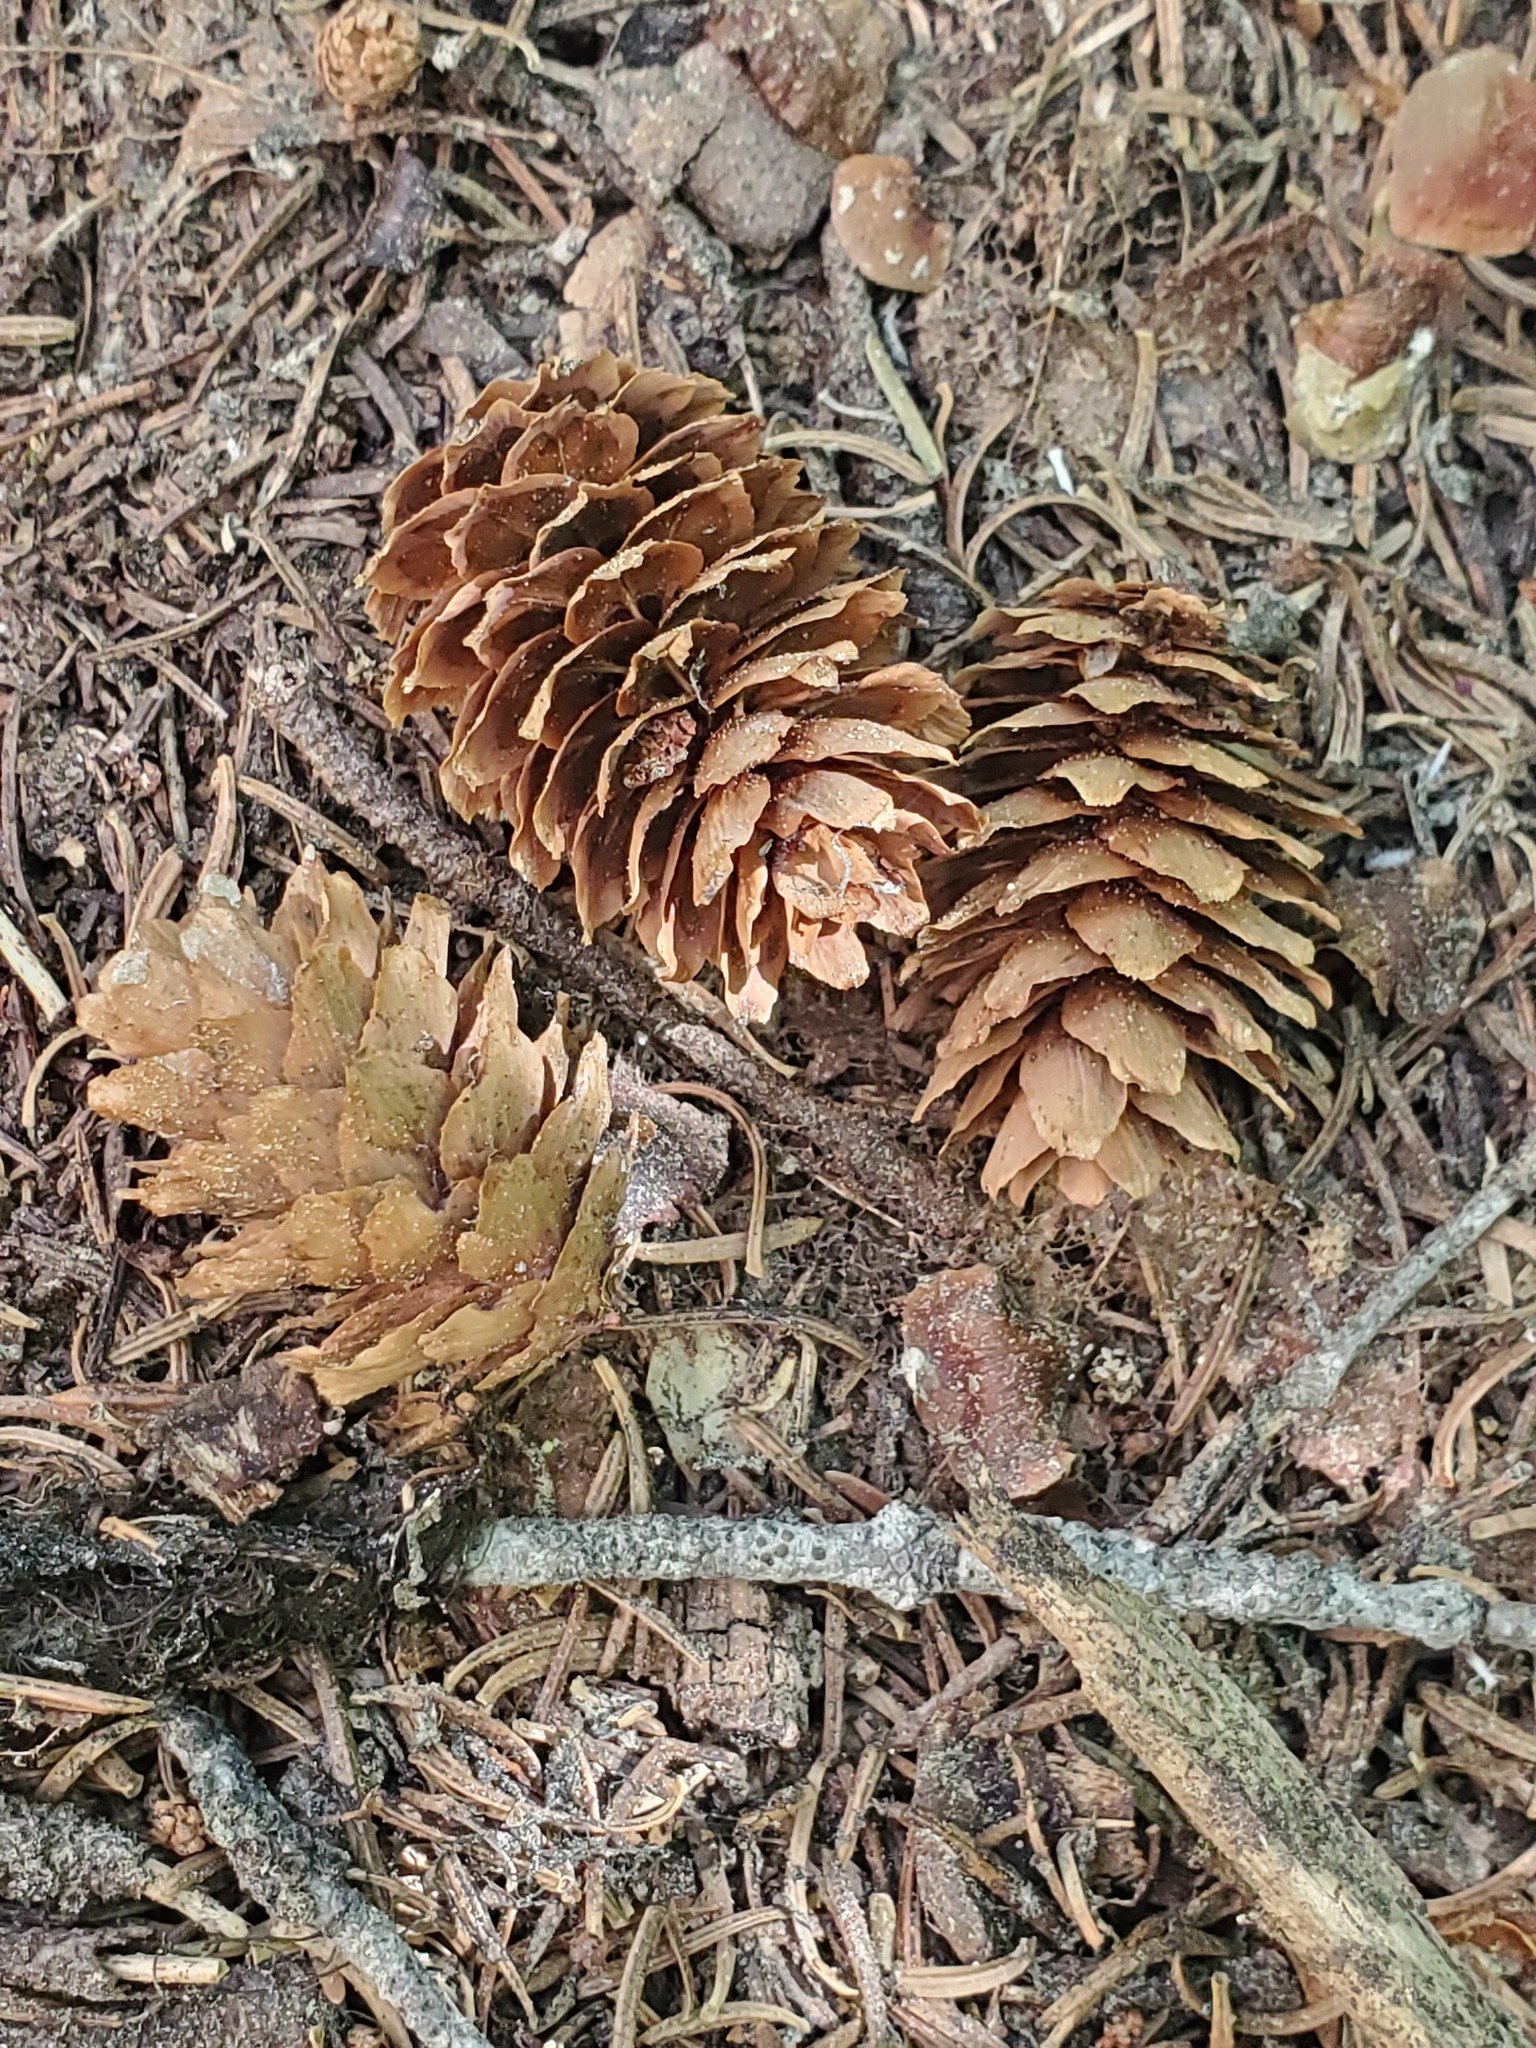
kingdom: Plantae
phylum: Tracheophyta
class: Pinopsida
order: Pinales
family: Pinaceae
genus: Picea
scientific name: Picea engelmannii
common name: Engelmann spruce
